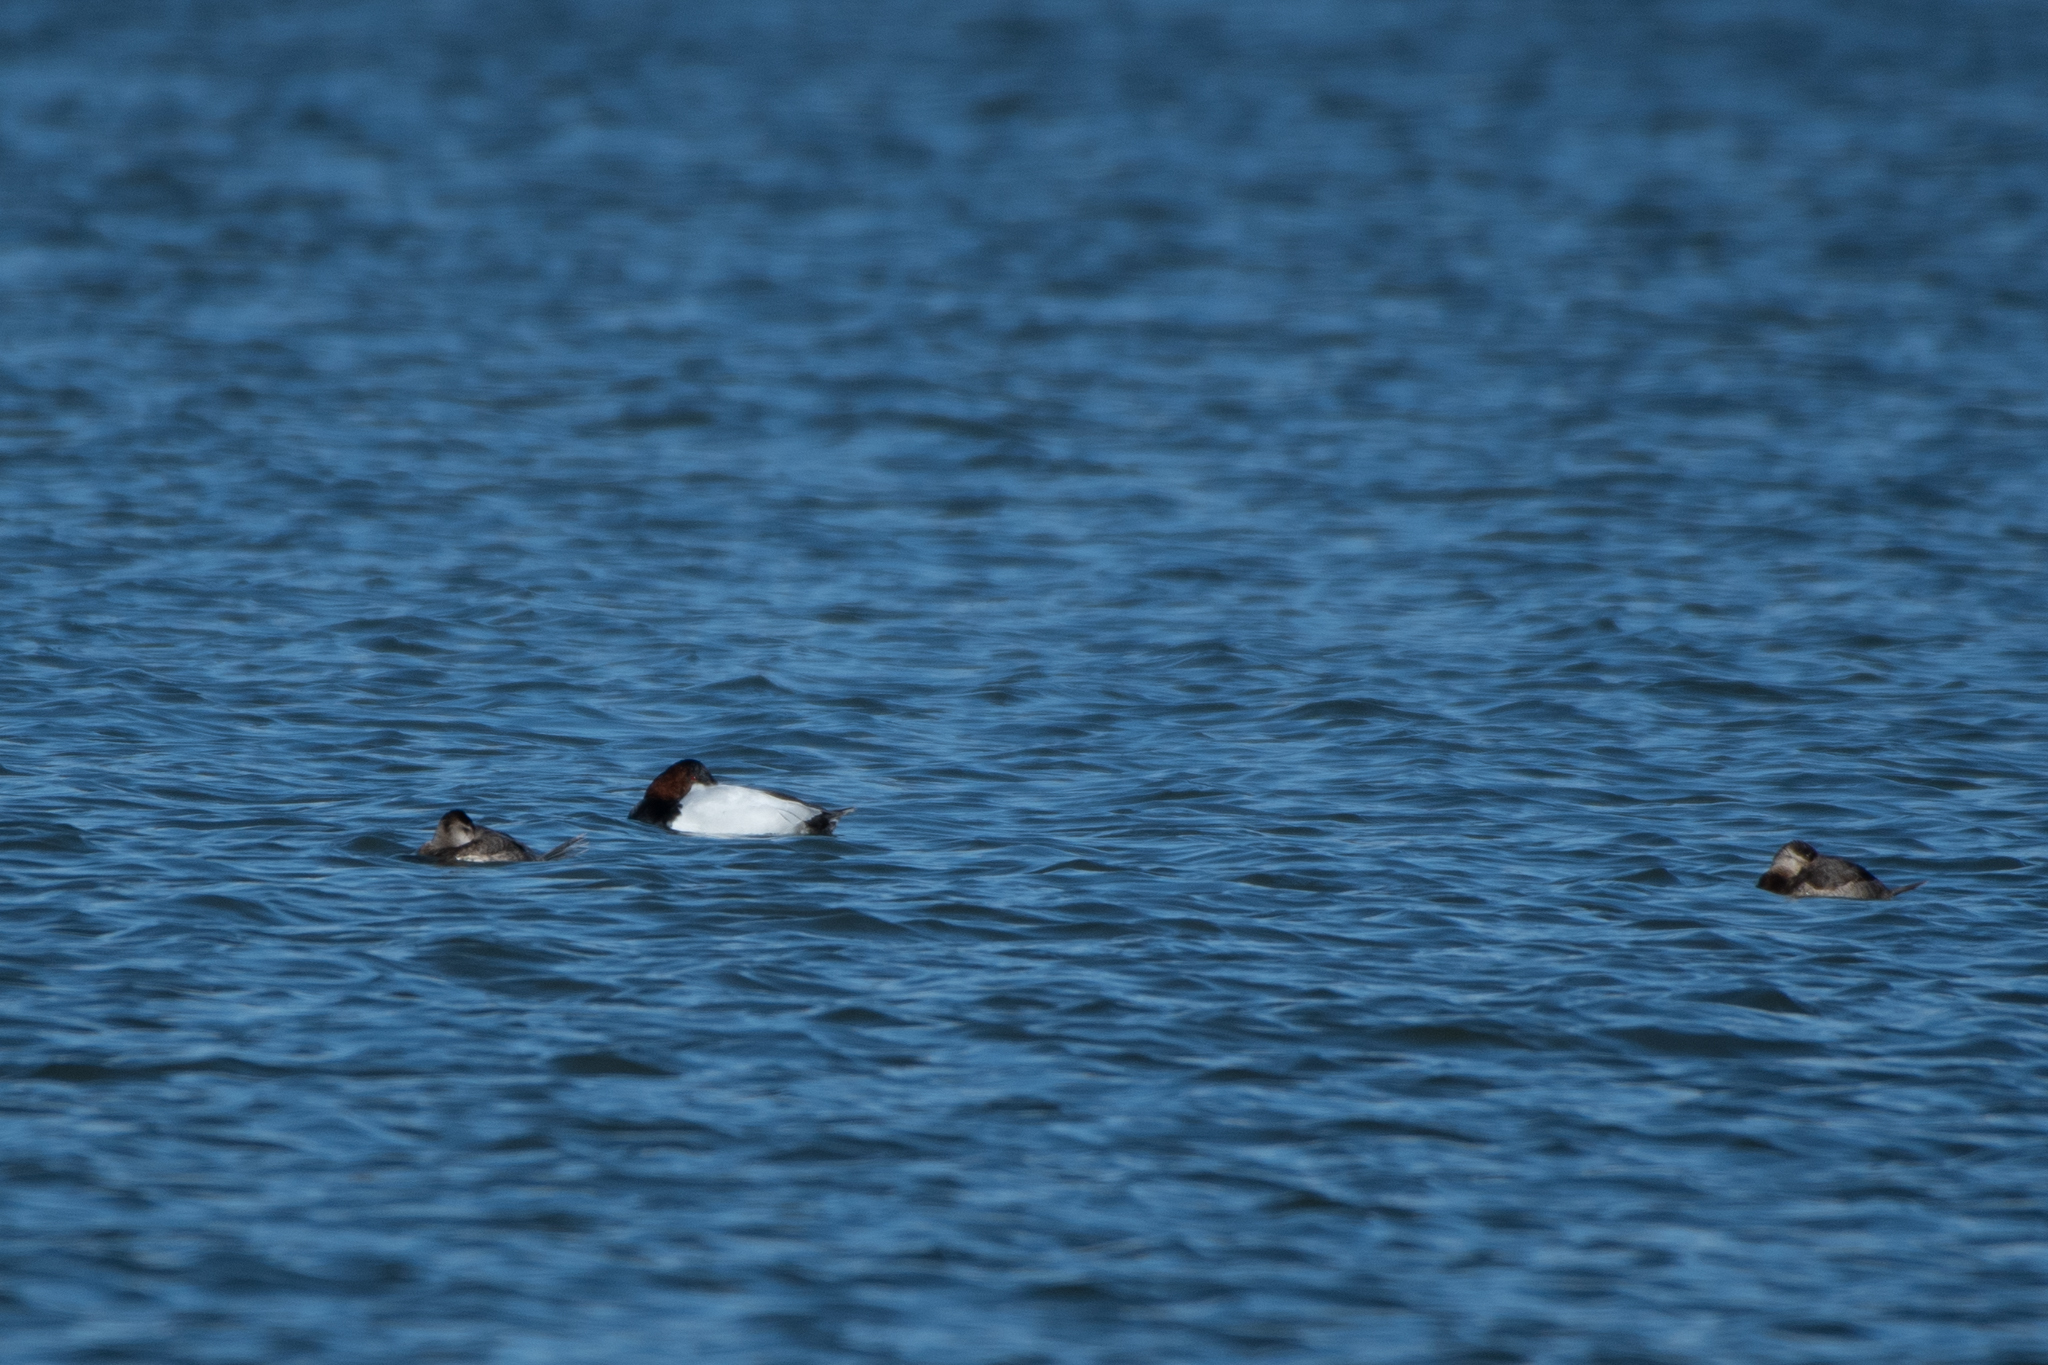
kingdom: Animalia
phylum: Chordata
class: Aves
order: Anseriformes
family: Anatidae
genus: Aythya
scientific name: Aythya valisineria
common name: Canvasback
